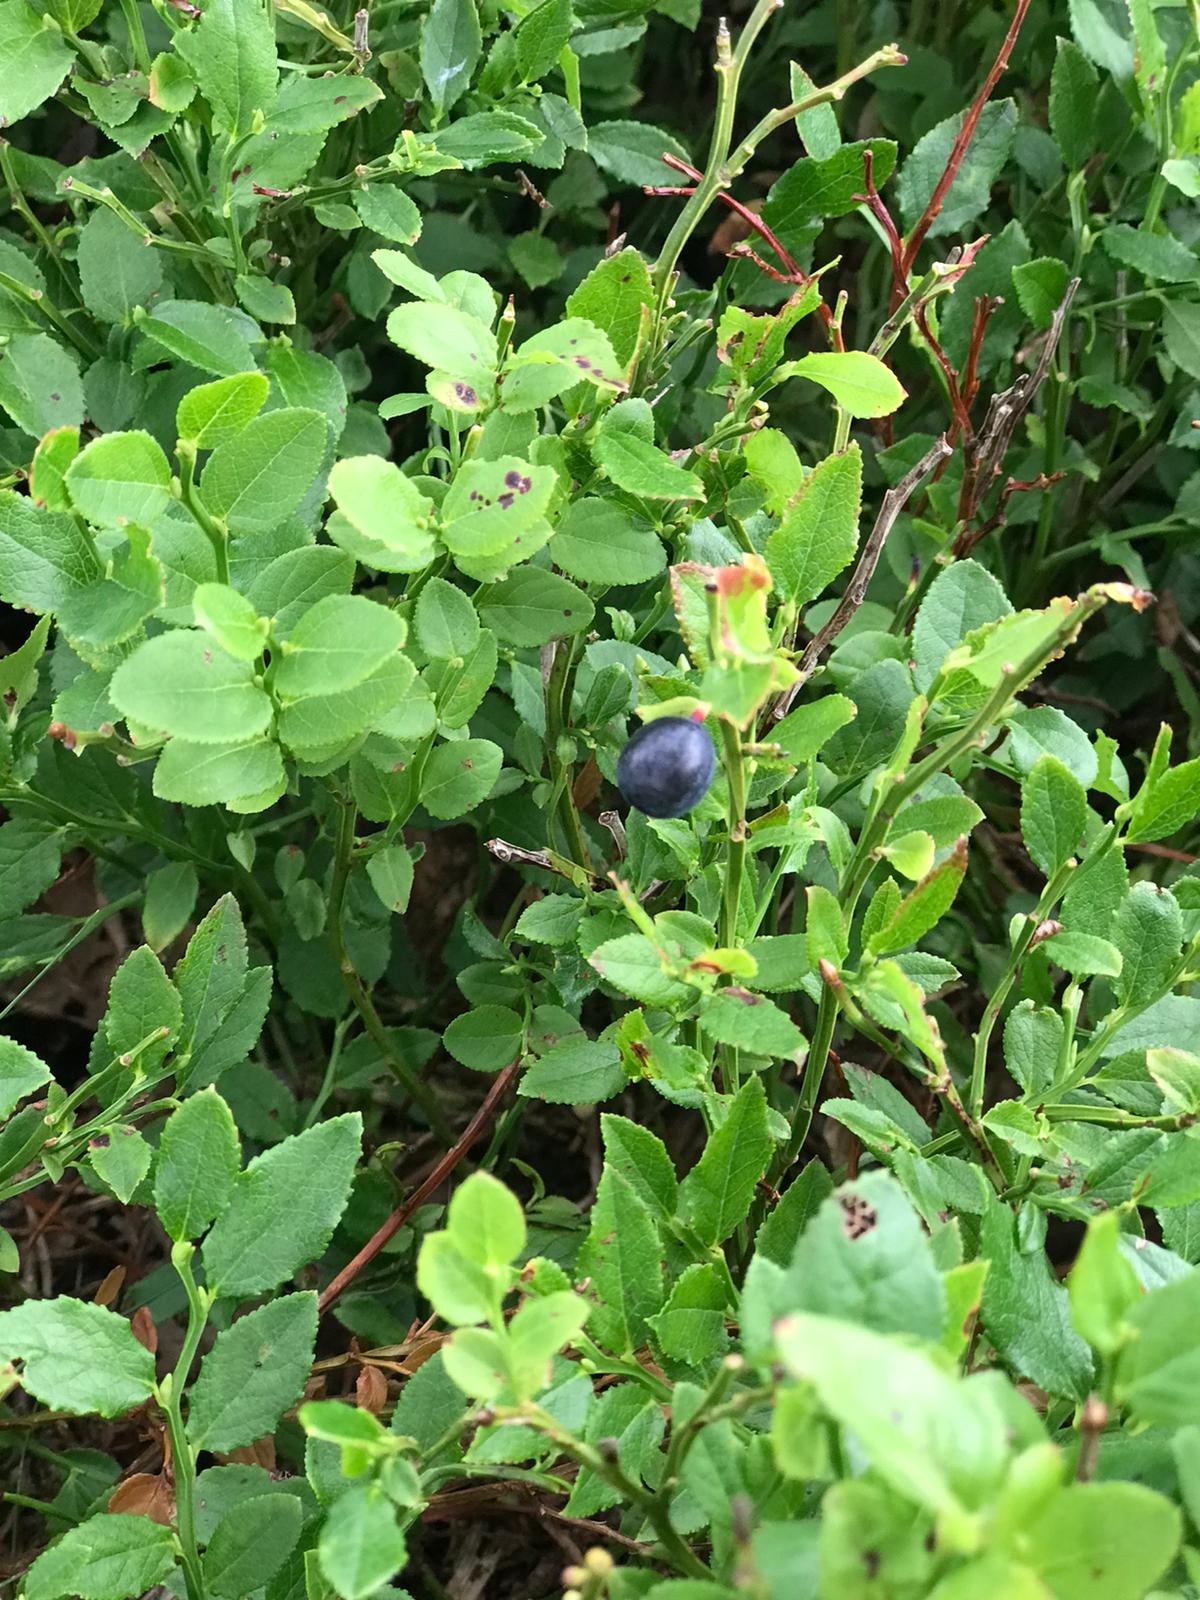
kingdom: Plantae
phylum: Tracheophyta
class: Magnoliopsida
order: Ericales
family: Ericaceae
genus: Vaccinium
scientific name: Vaccinium myrtillus
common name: Bilberry
